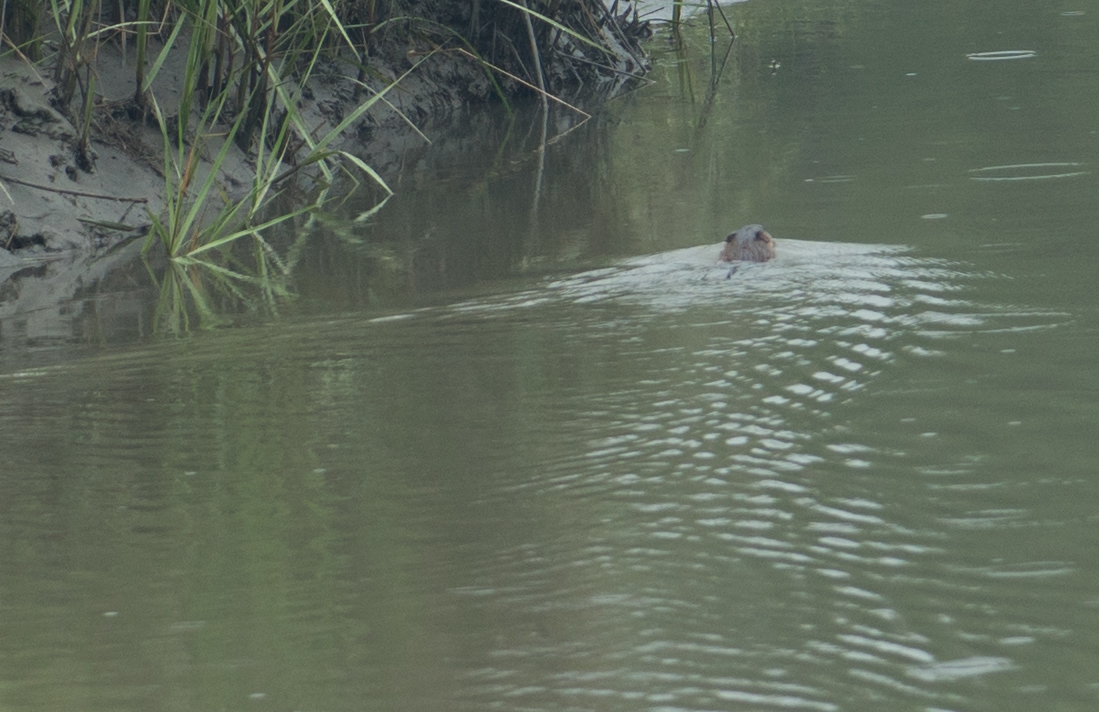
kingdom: Animalia
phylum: Chordata
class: Mammalia
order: Rodentia
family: Cricetidae
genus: Ondatra
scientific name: Ondatra zibethicus
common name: Muskrat
